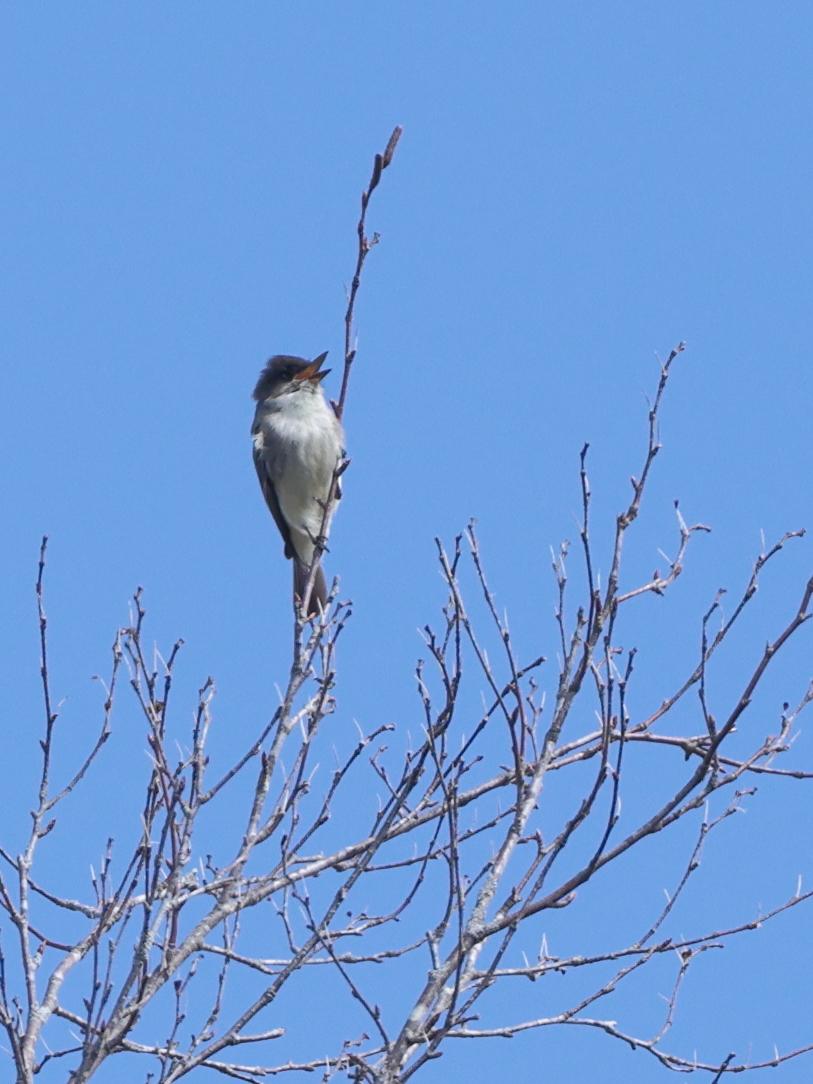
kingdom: Animalia
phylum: Chordata
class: Aves
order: Passeriformes
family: Tyrannidae
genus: Sayornis
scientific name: Sayornis phoebe
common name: Eastern phoebe
